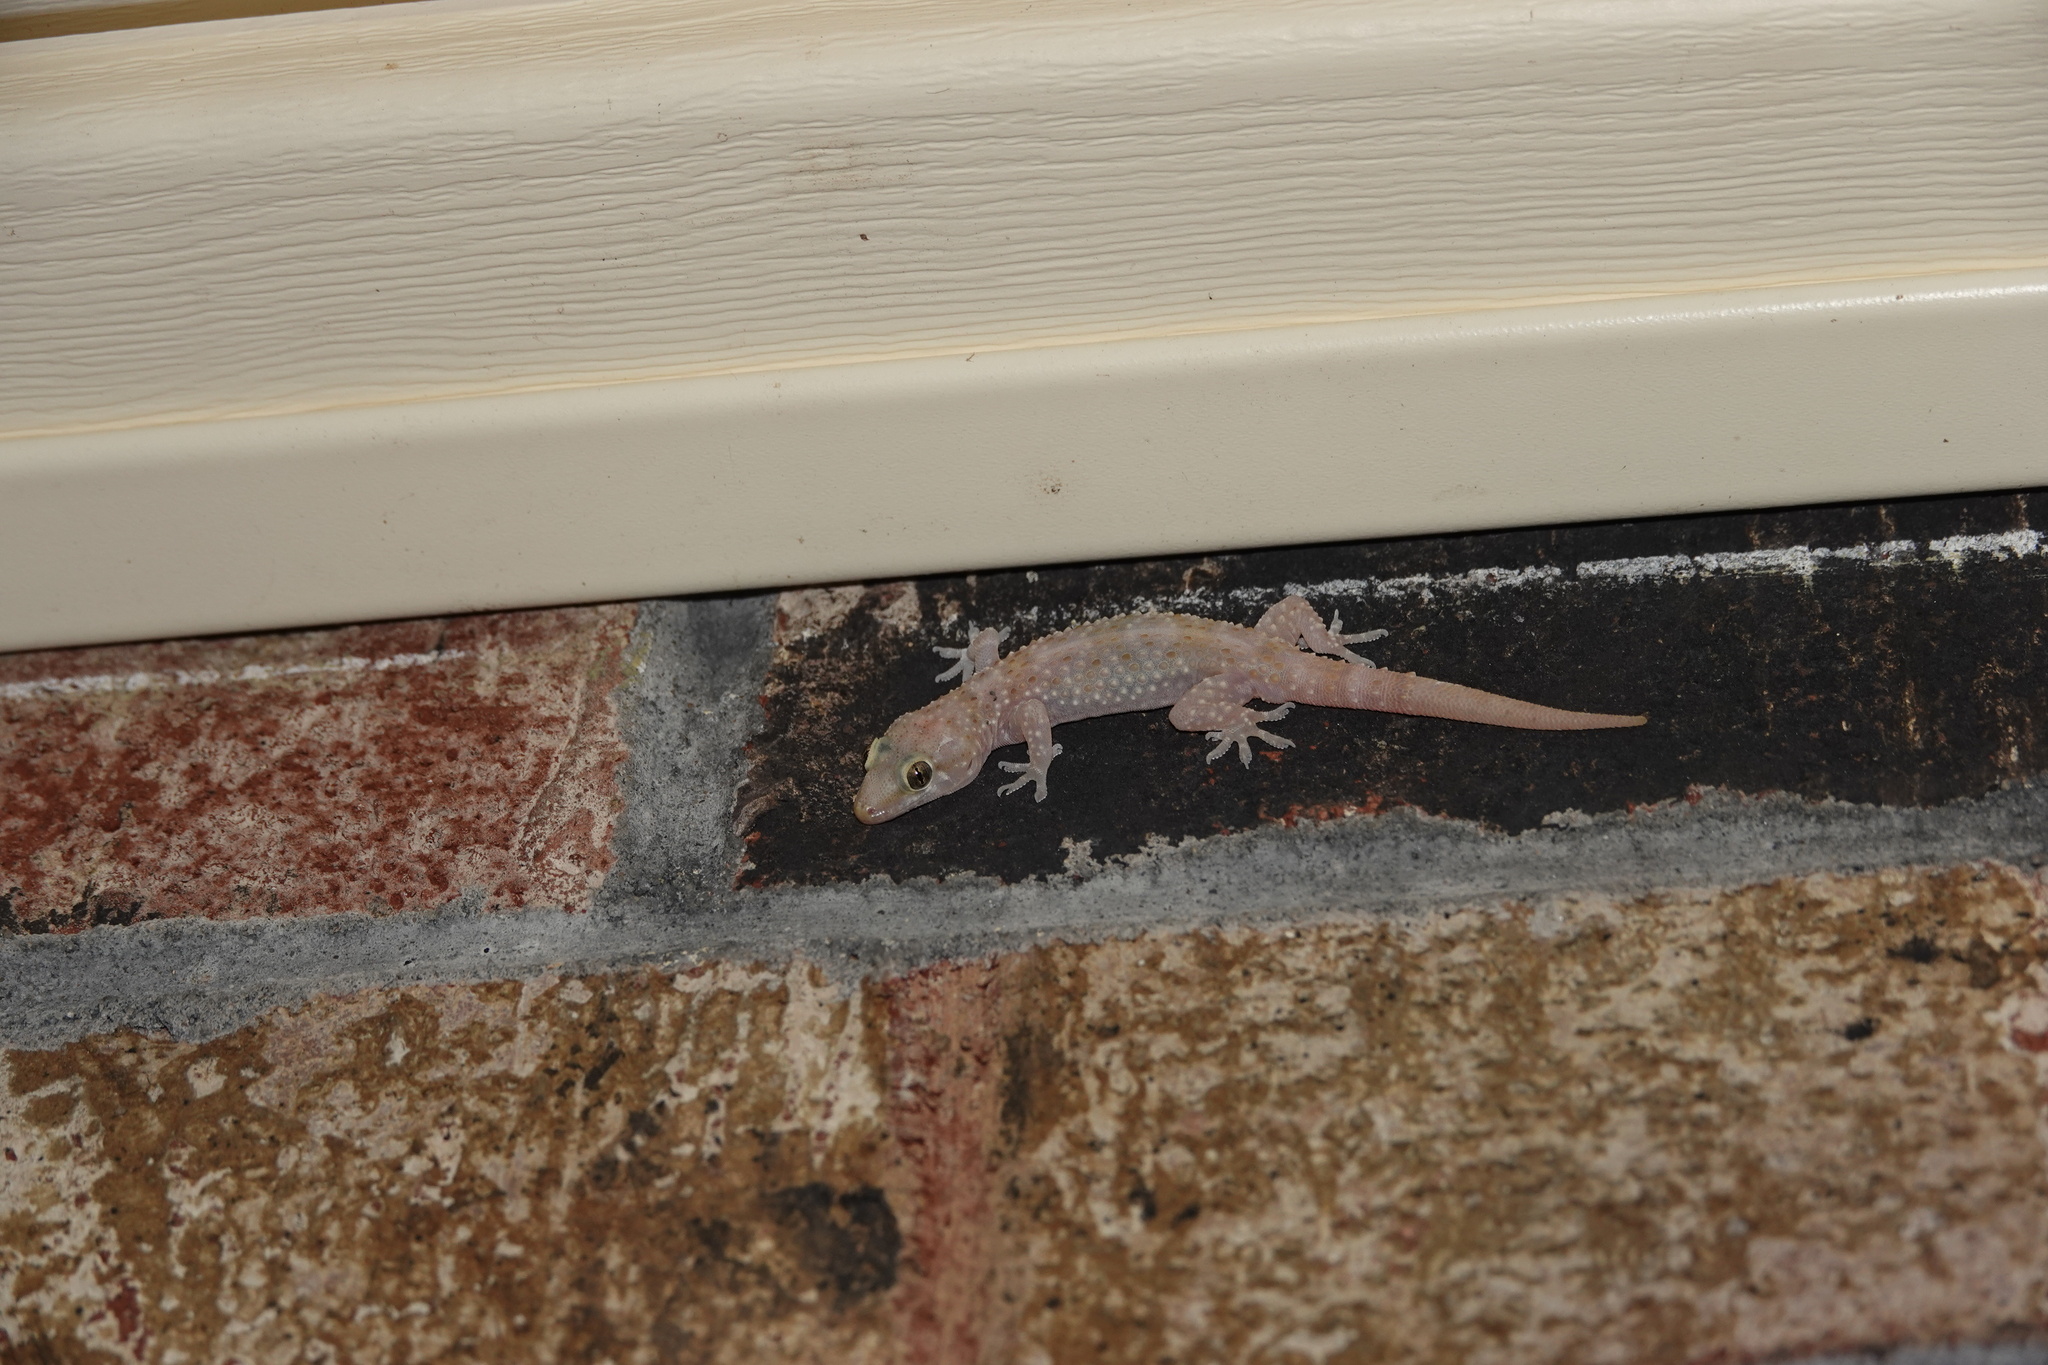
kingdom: Animalia
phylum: Chordata
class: Squamata
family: Gekkonidae
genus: Hemidactylus
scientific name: Hemidactylus turcicus
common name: Turkish gecko
